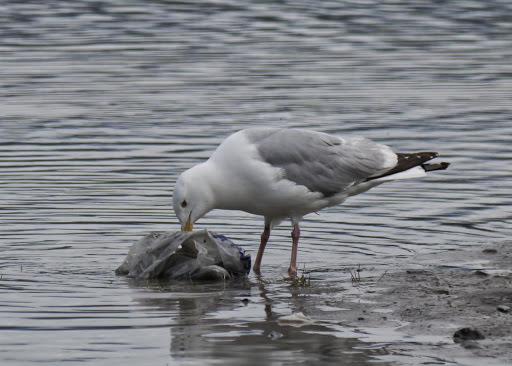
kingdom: Animalia
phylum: Chordata
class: Aves
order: Charadriiformes
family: Laridae
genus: Larus
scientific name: Larus argentatus
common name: Herring gull
